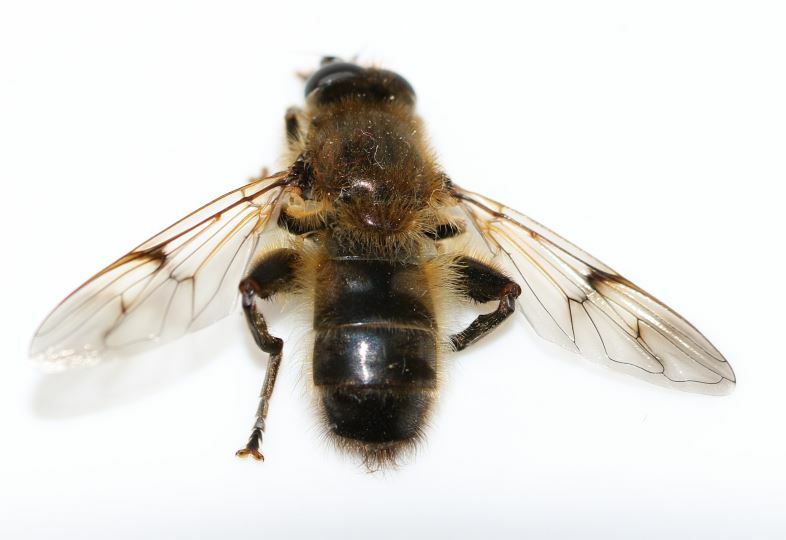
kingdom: Animalia
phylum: Arthropoda
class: Insecta
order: Diptera
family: Syrphidae
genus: Brachypalpus
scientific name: Brachypalpus valgus
